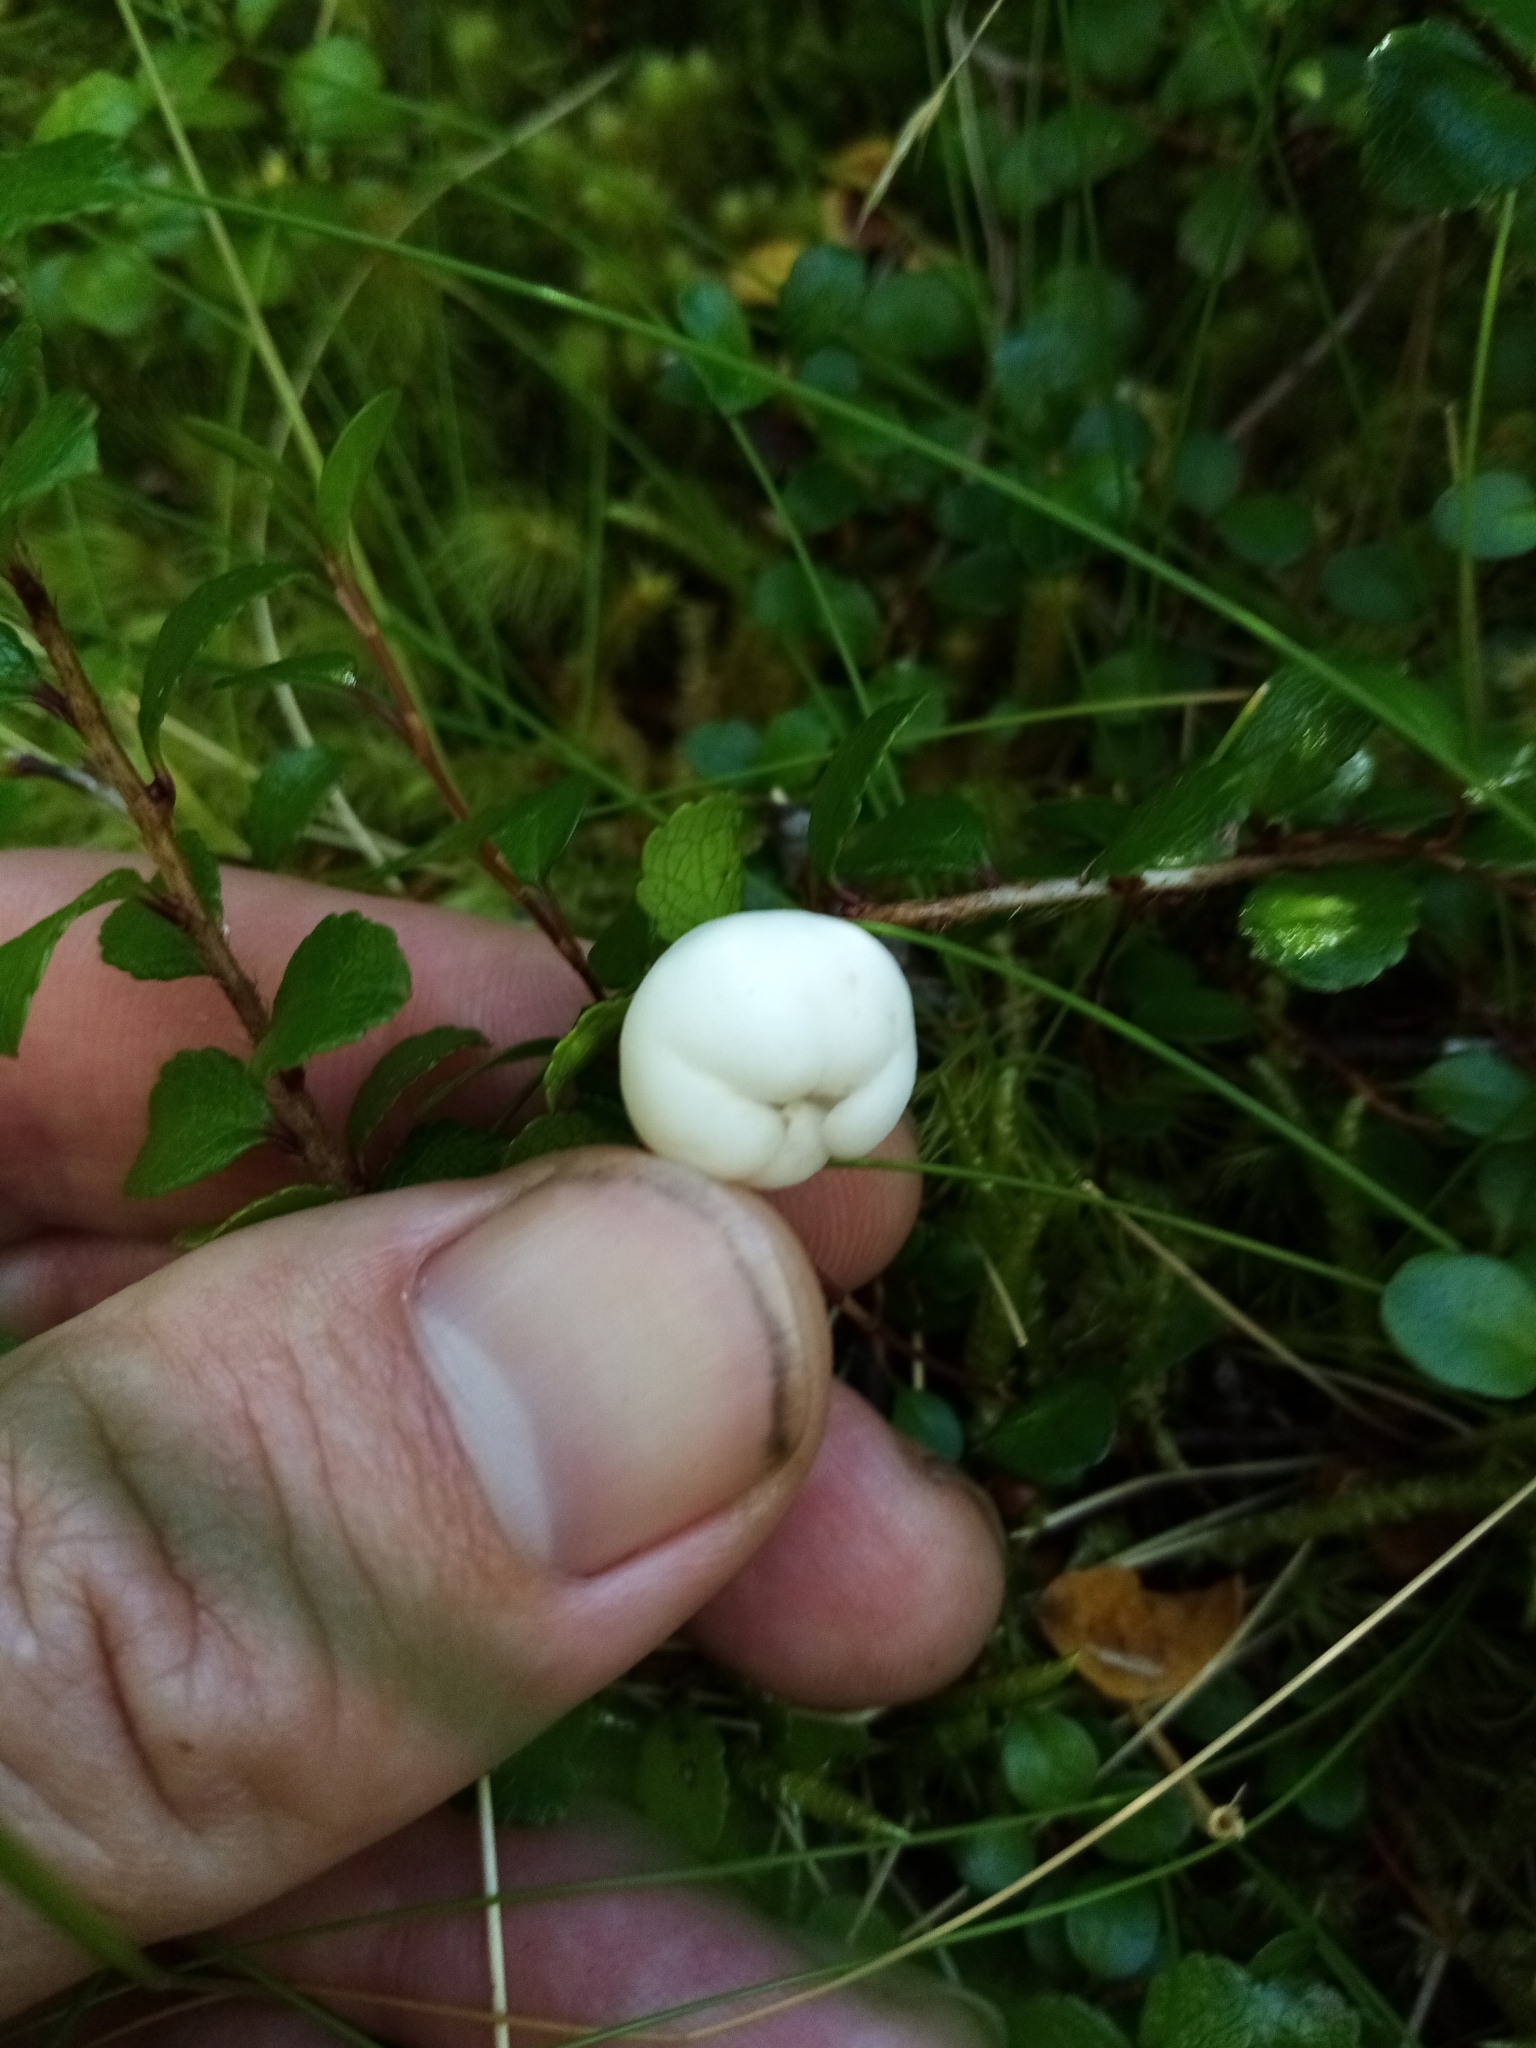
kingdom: Plantae
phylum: Tracheophyta
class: Magnoliopsida
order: Ericales
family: Ericaceae
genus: Gaultheria
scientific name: Gaultheria depressa
